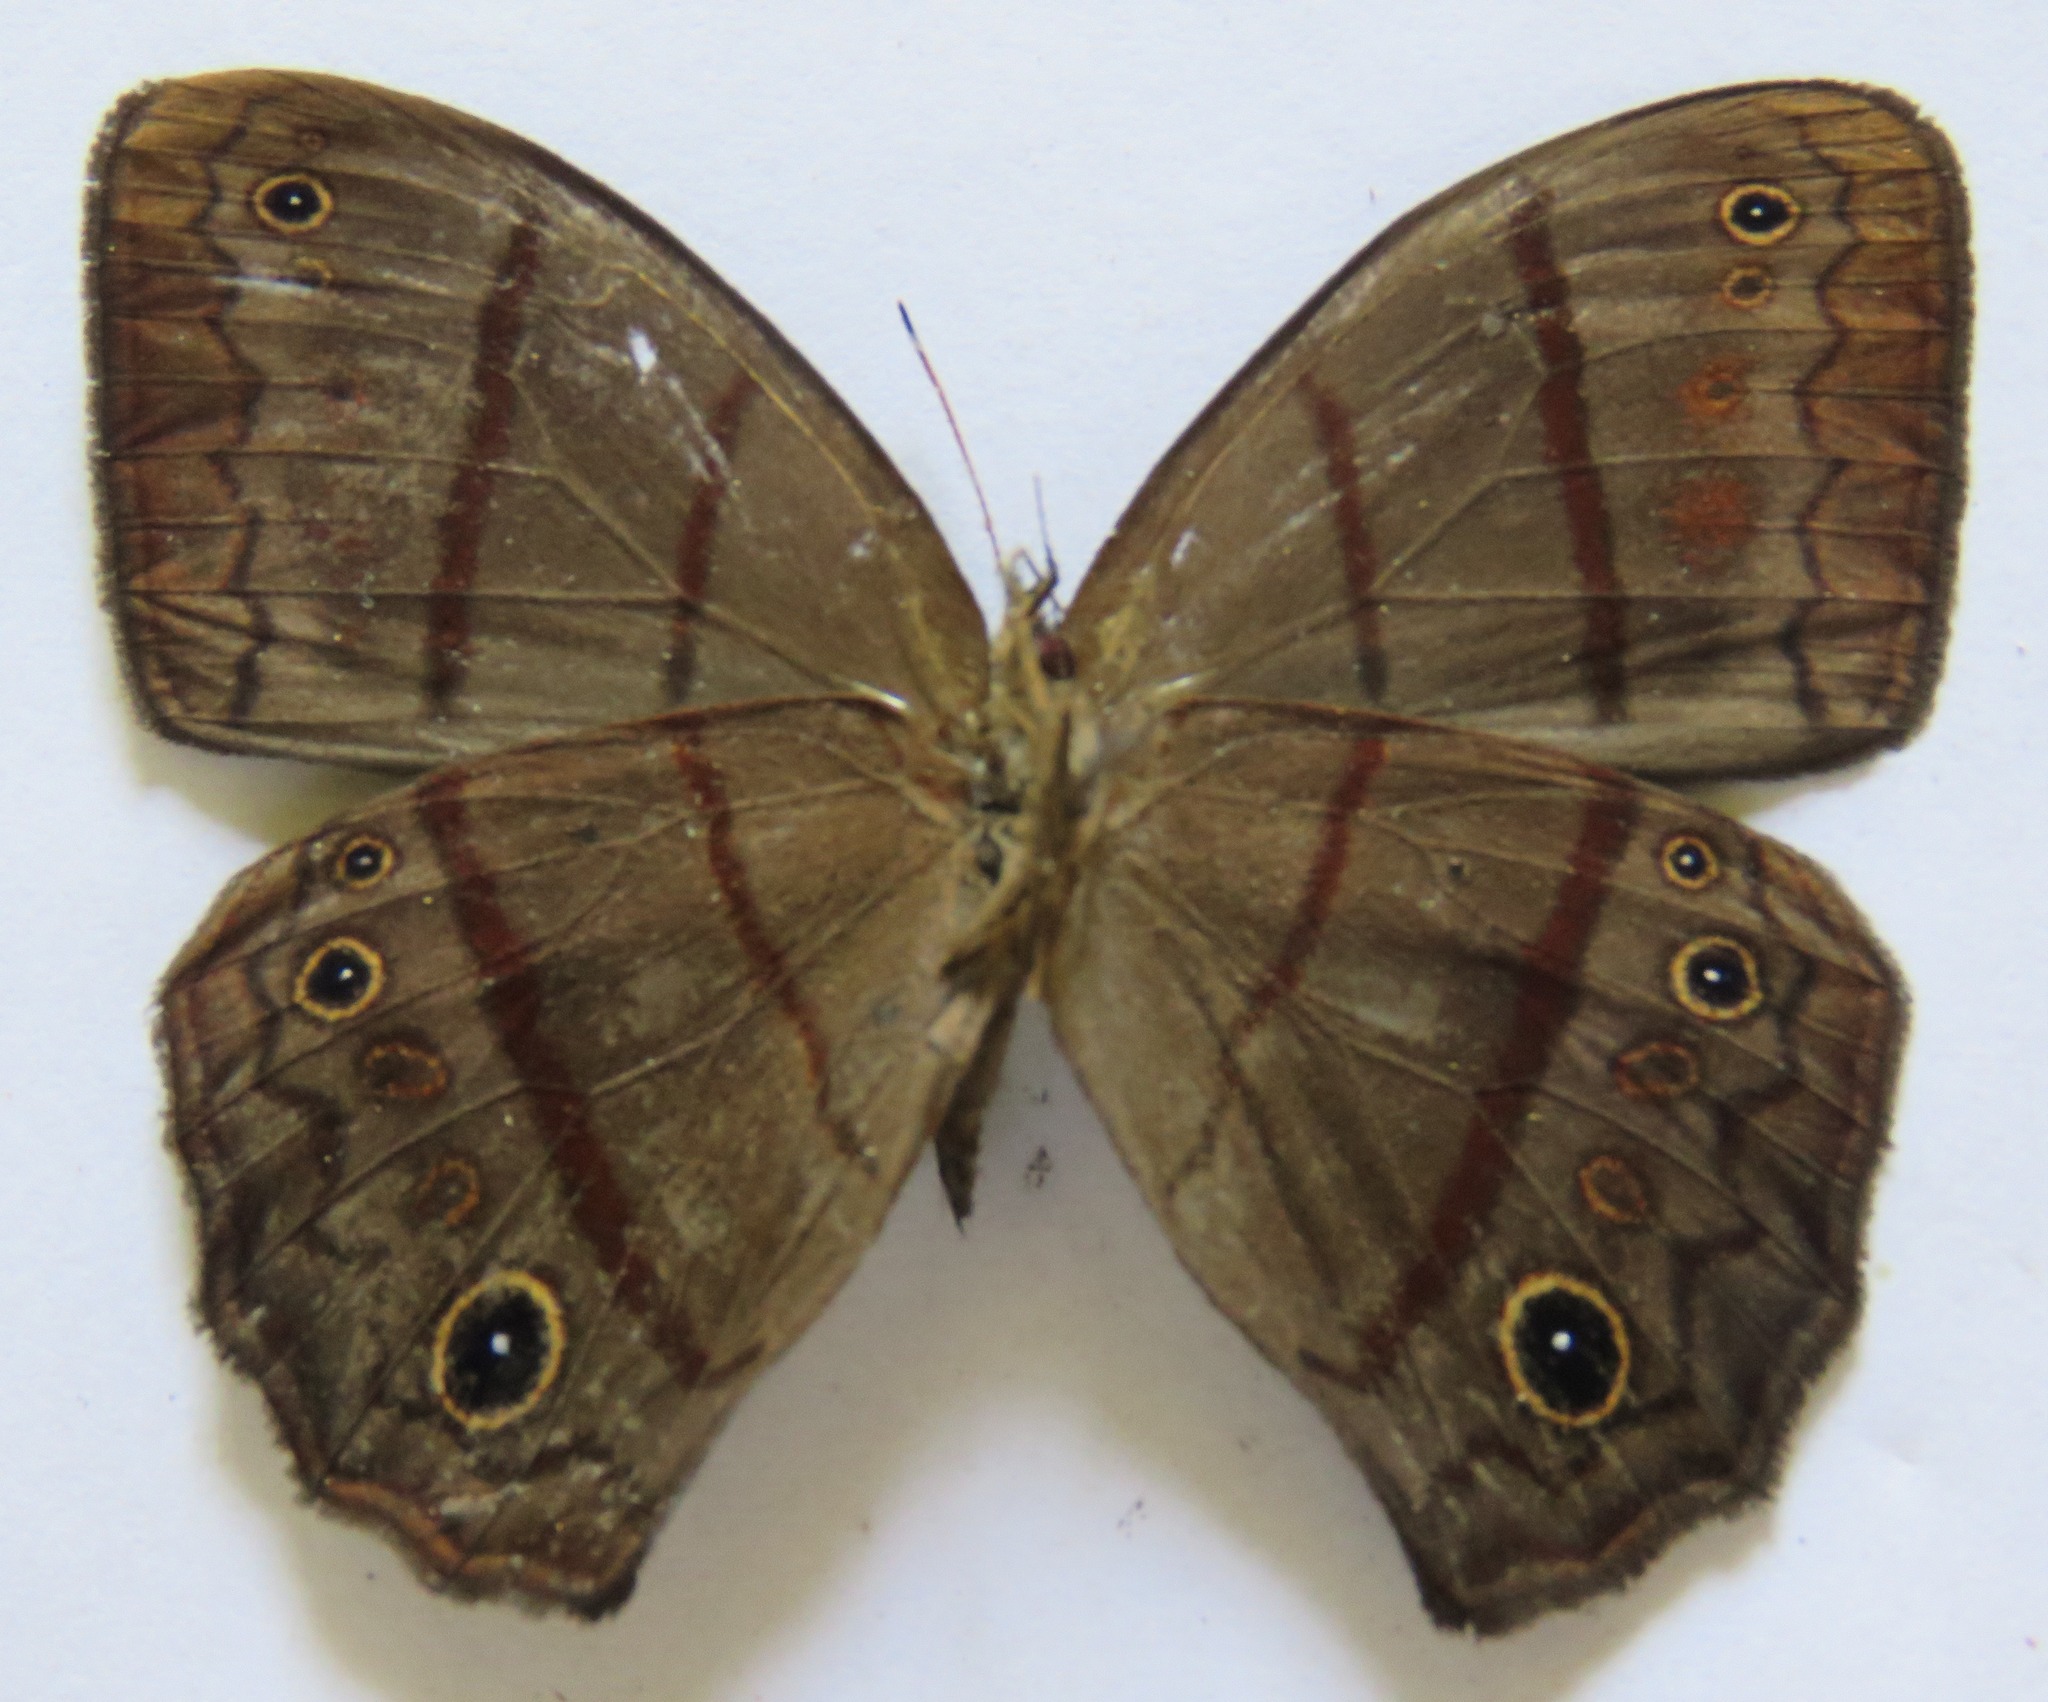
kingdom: Animalia
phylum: Arthropoda
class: Insecta
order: Lepidoptera
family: Nymphalidae
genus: Satyrotaygetis
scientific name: Satyrotaygetis satyrina
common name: Wide-bordered satyr
